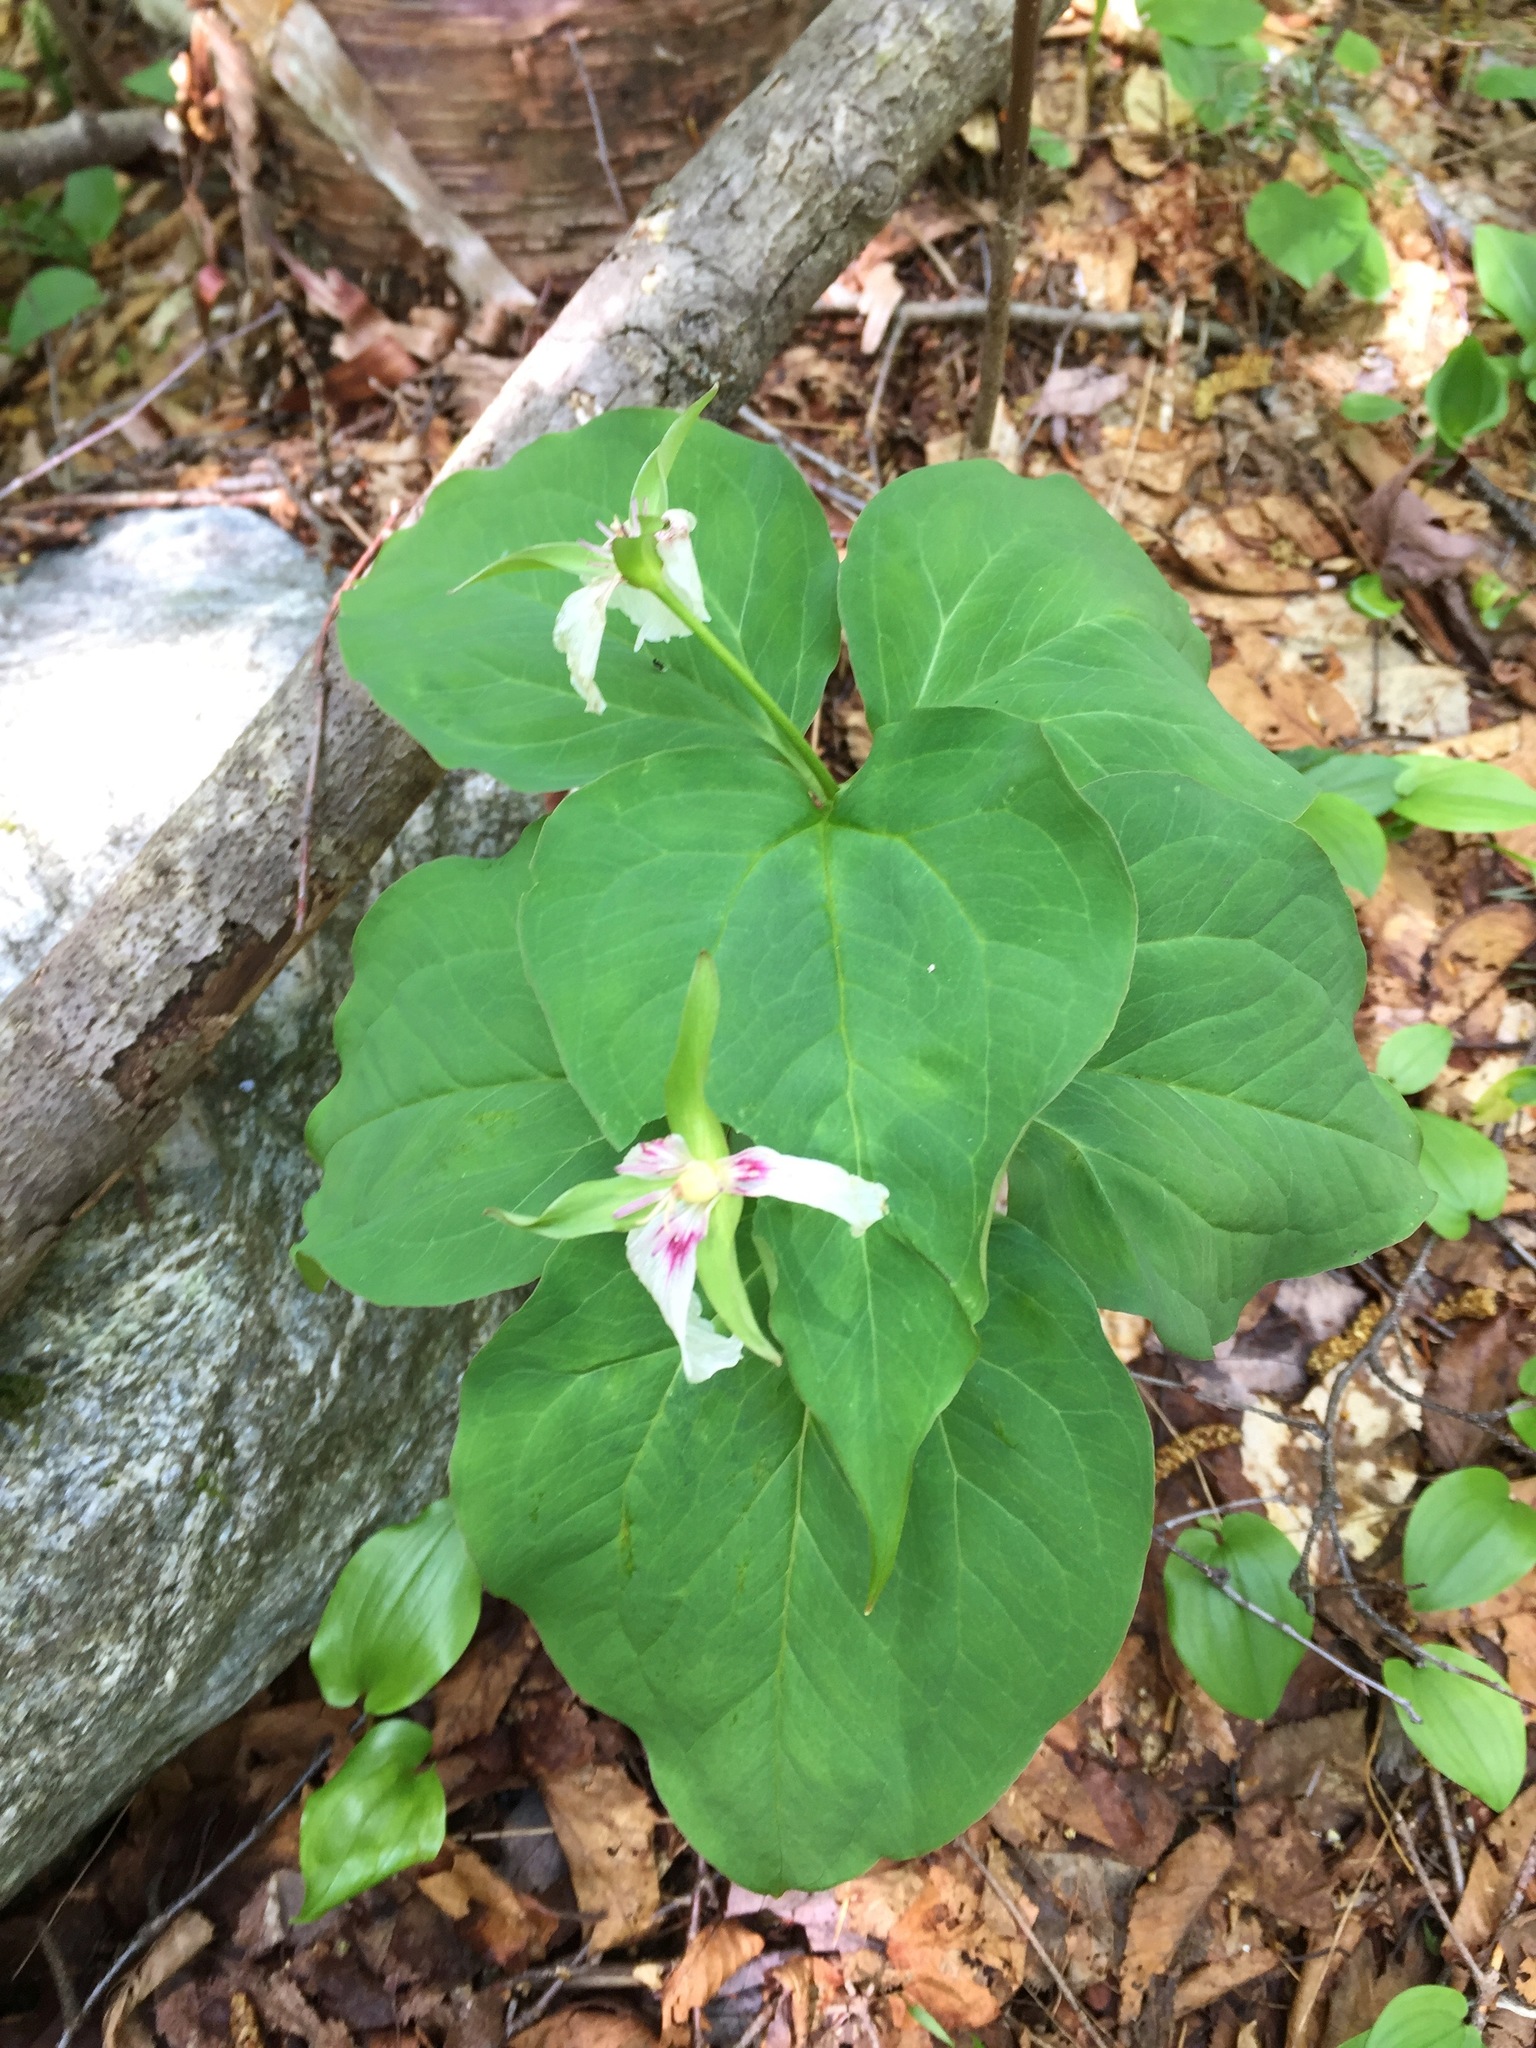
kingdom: Plantae
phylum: Tracheophyta
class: Liliopsida
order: Liliales
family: Melanthiaceae
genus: Trillium
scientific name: Trillium undulatum
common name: Paint trillium
